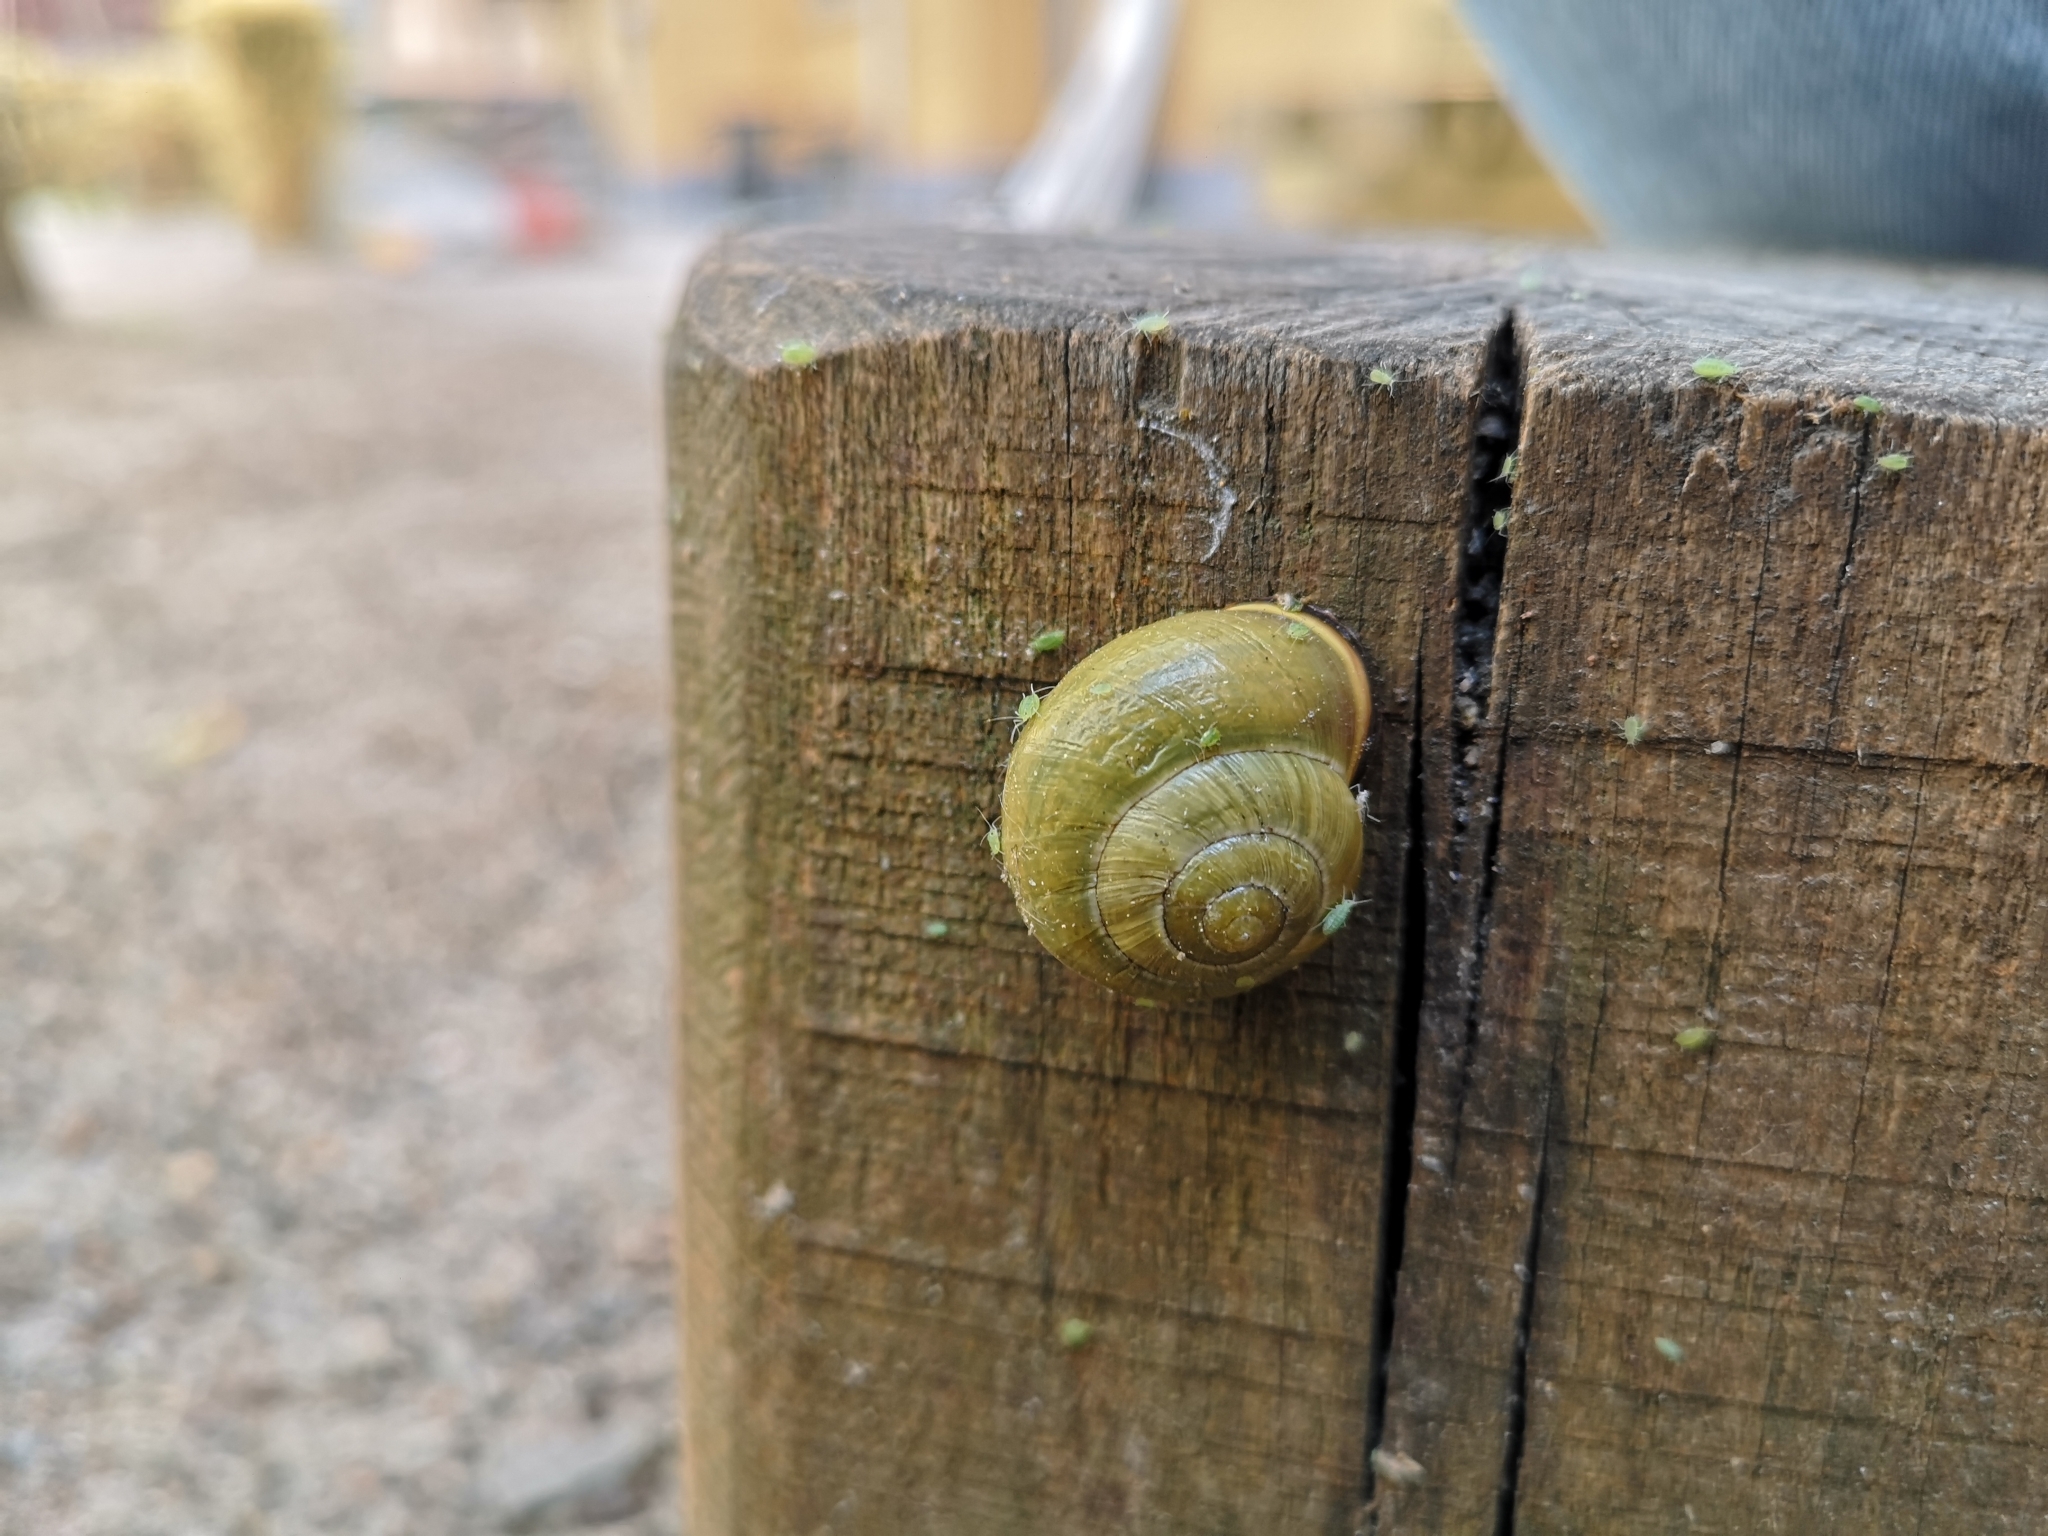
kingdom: Animalia
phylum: Mollusca
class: Gastropoda
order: Stylommatophora
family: Helicidae
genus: Cepaea
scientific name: Cepaea nemoralis
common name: Grovesnail
